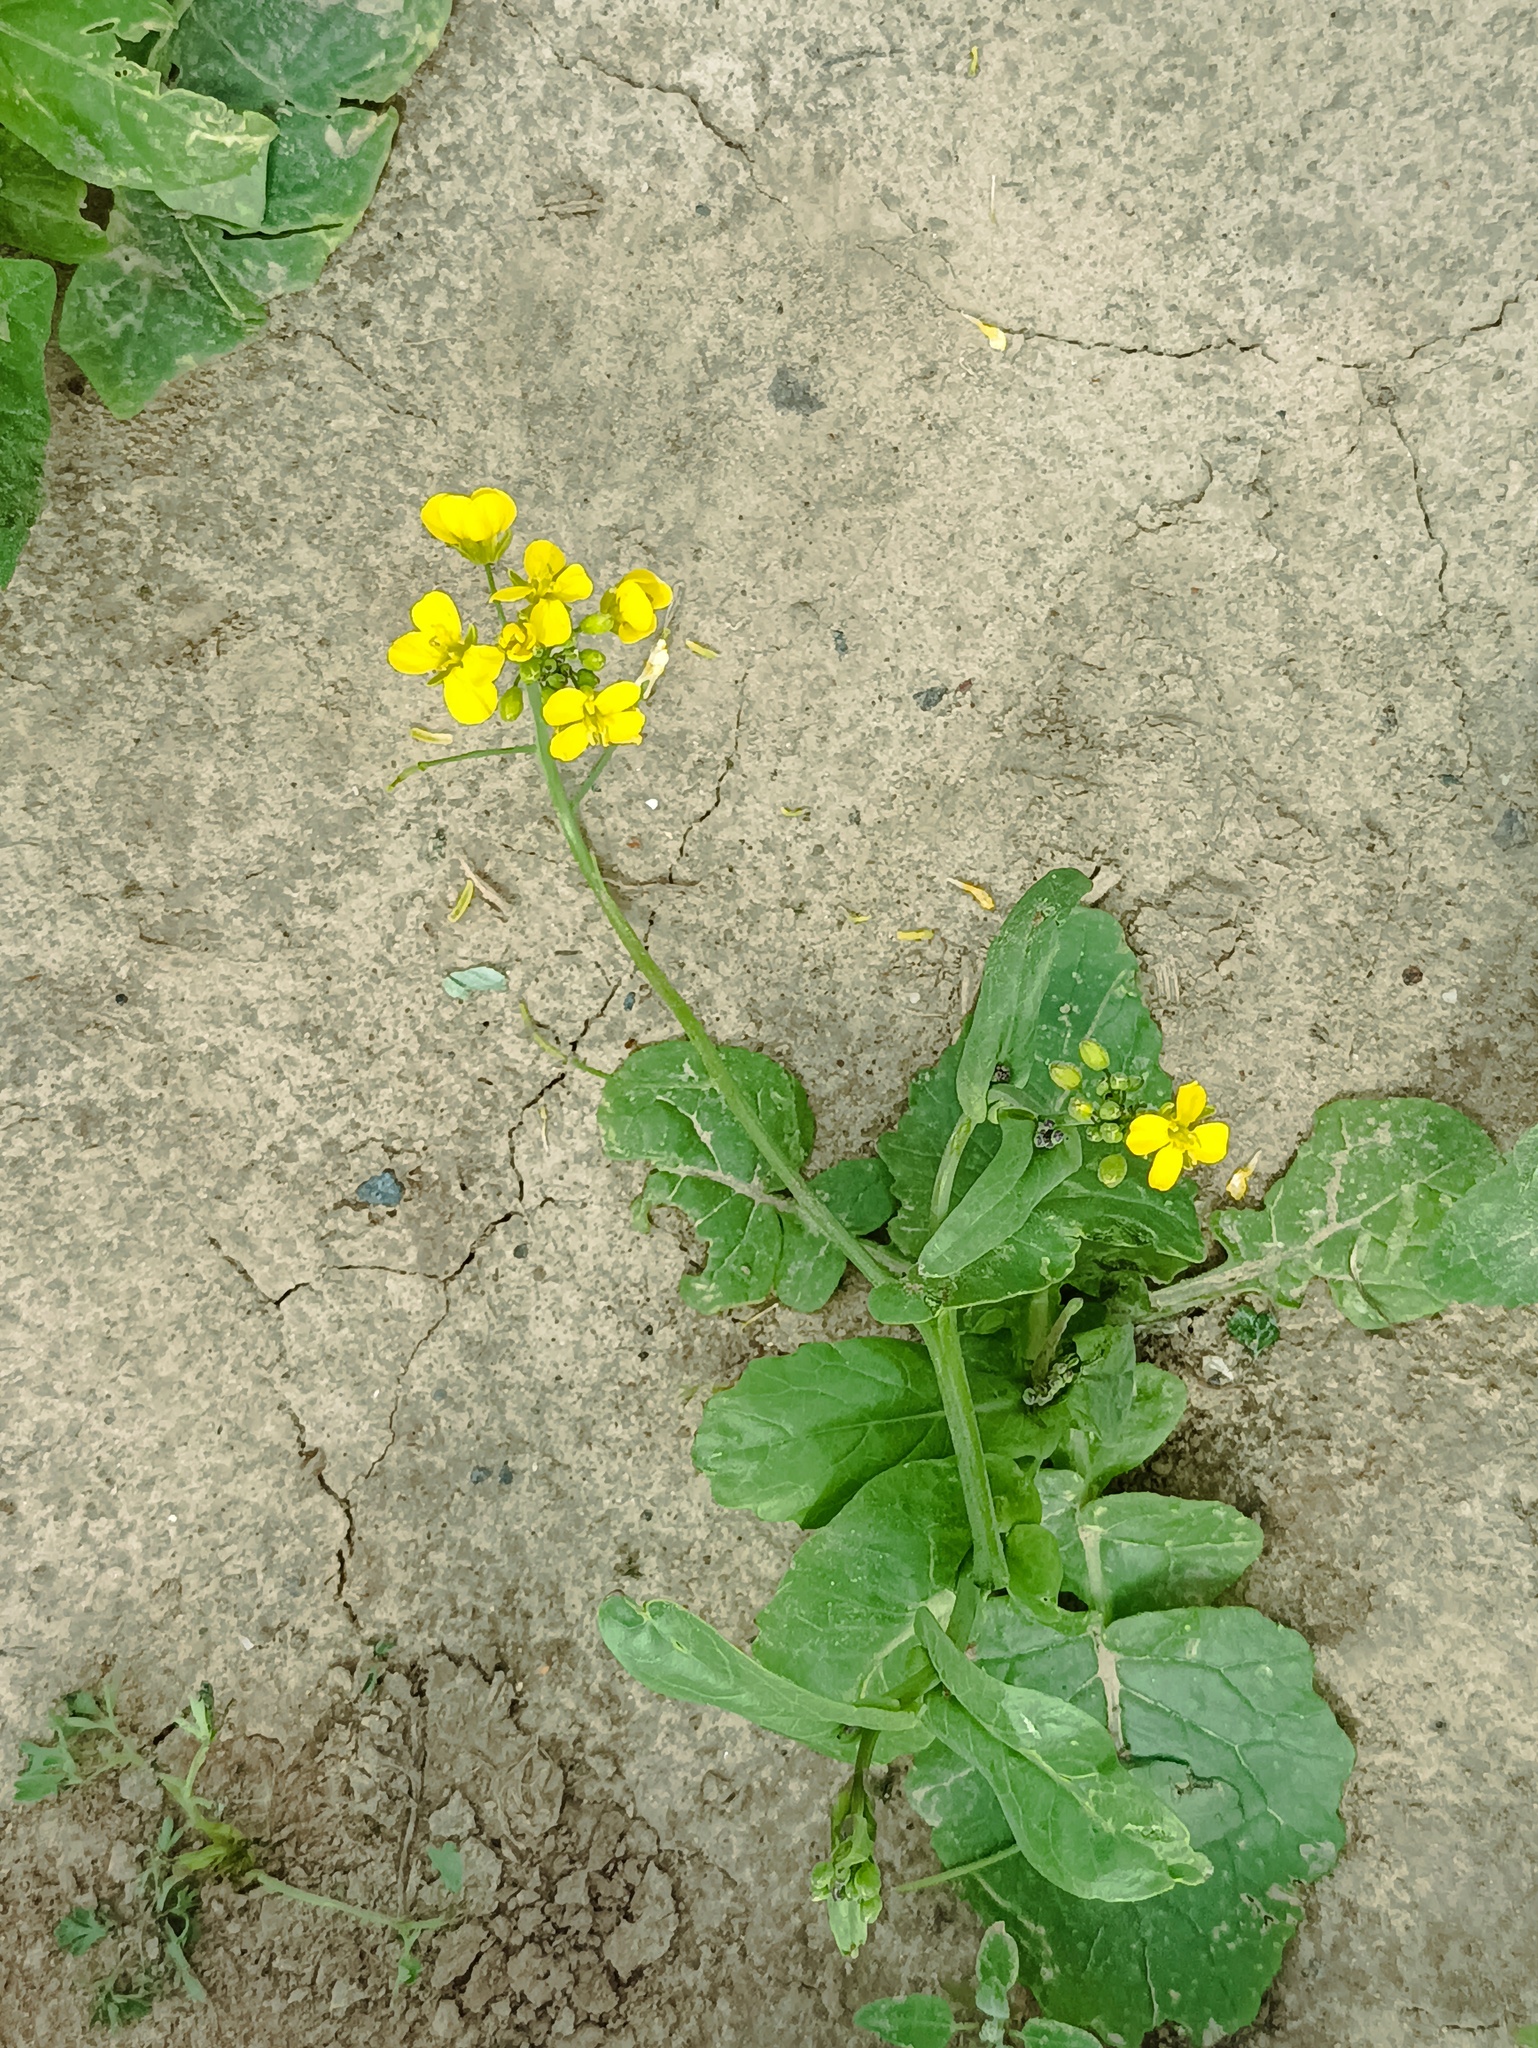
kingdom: Plantae
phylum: Tracheophyta
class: Magnoliopsida
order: Brassicales
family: Brassicaceae
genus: Brassica
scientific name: Brassica rapa
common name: Field mustard
